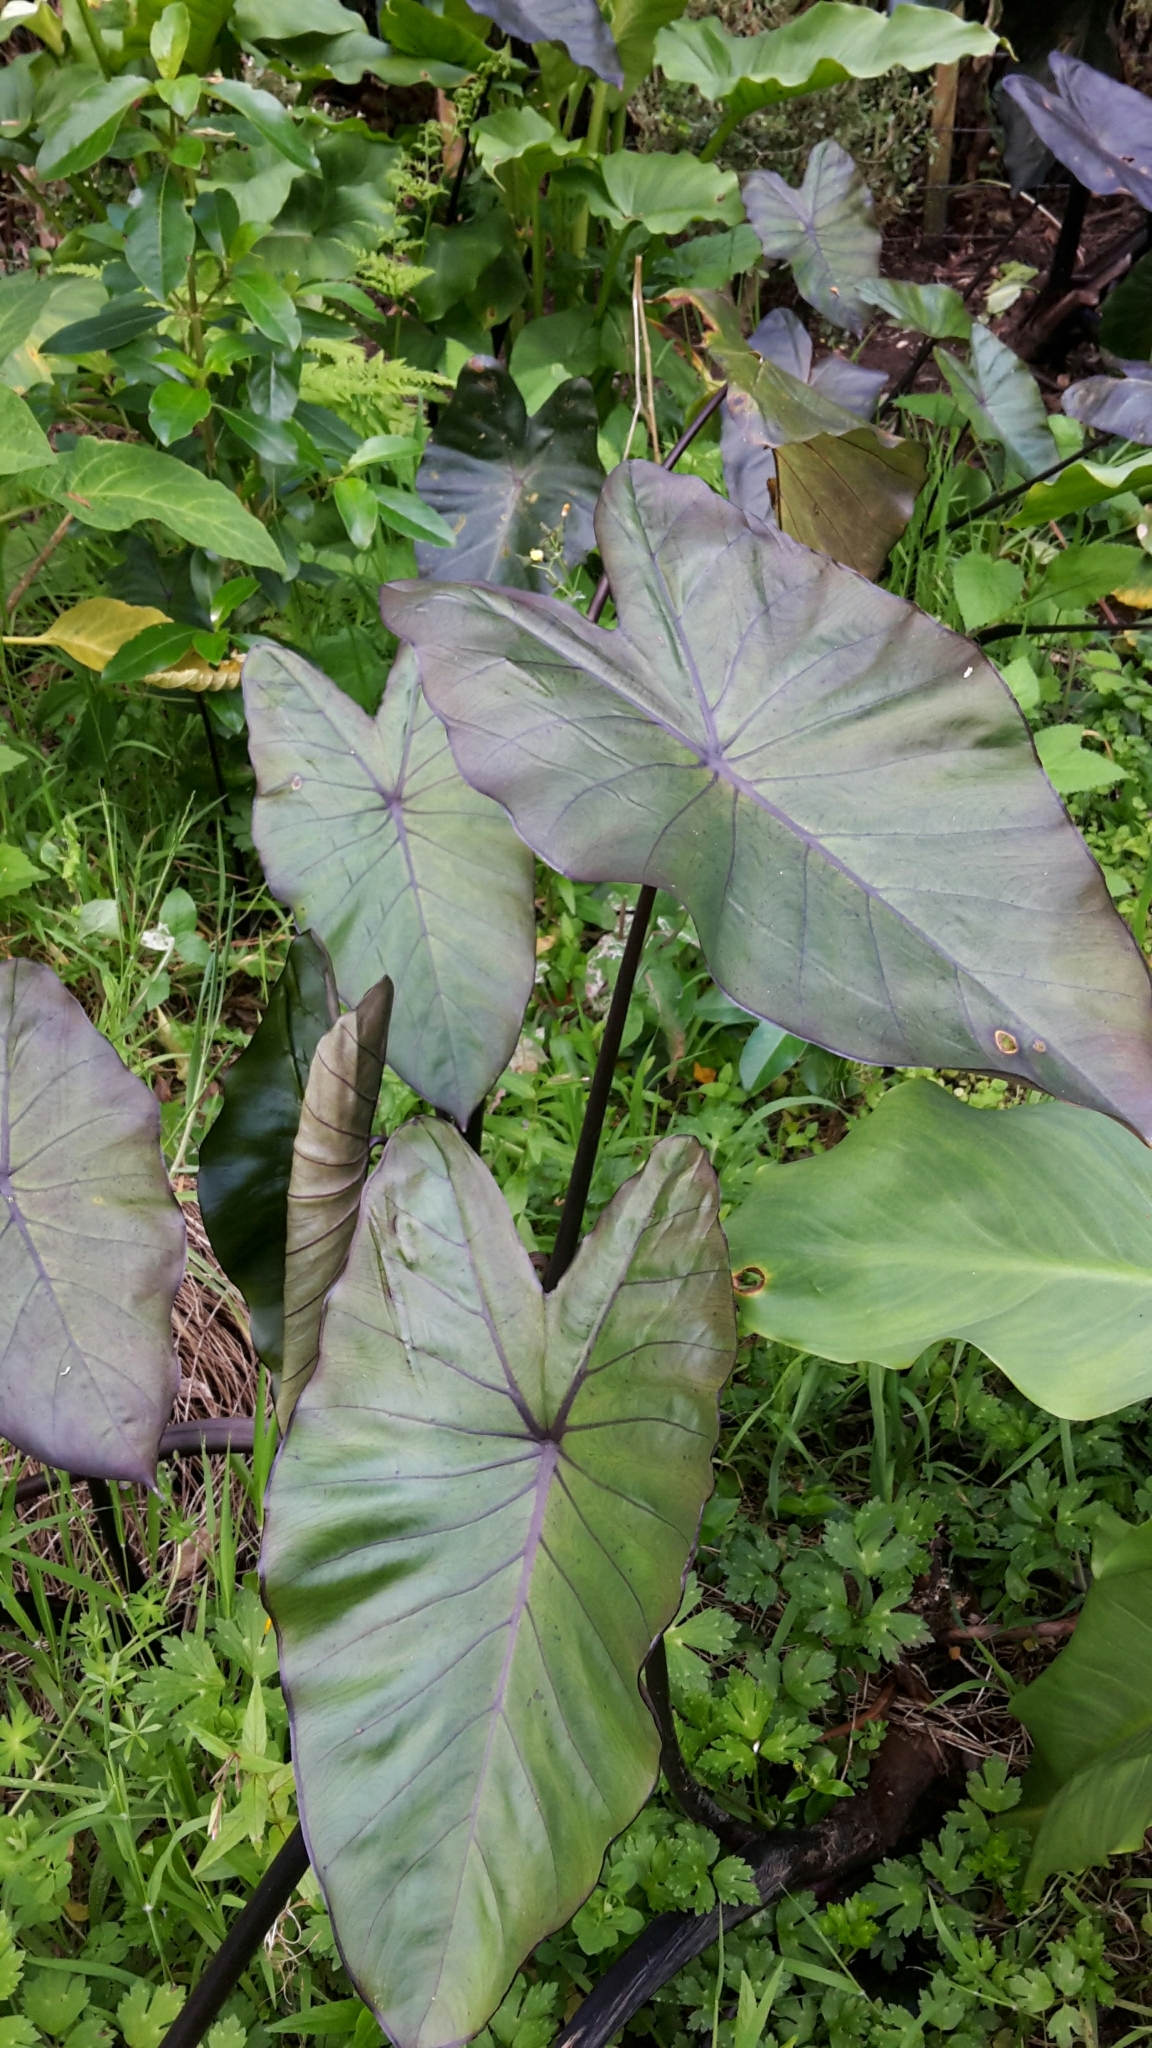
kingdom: Plantae
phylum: Tracheophyta
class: Liliopsida
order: Alismatales
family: Araceae
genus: Colocasia
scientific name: Colocasia esculenta
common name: Taro
